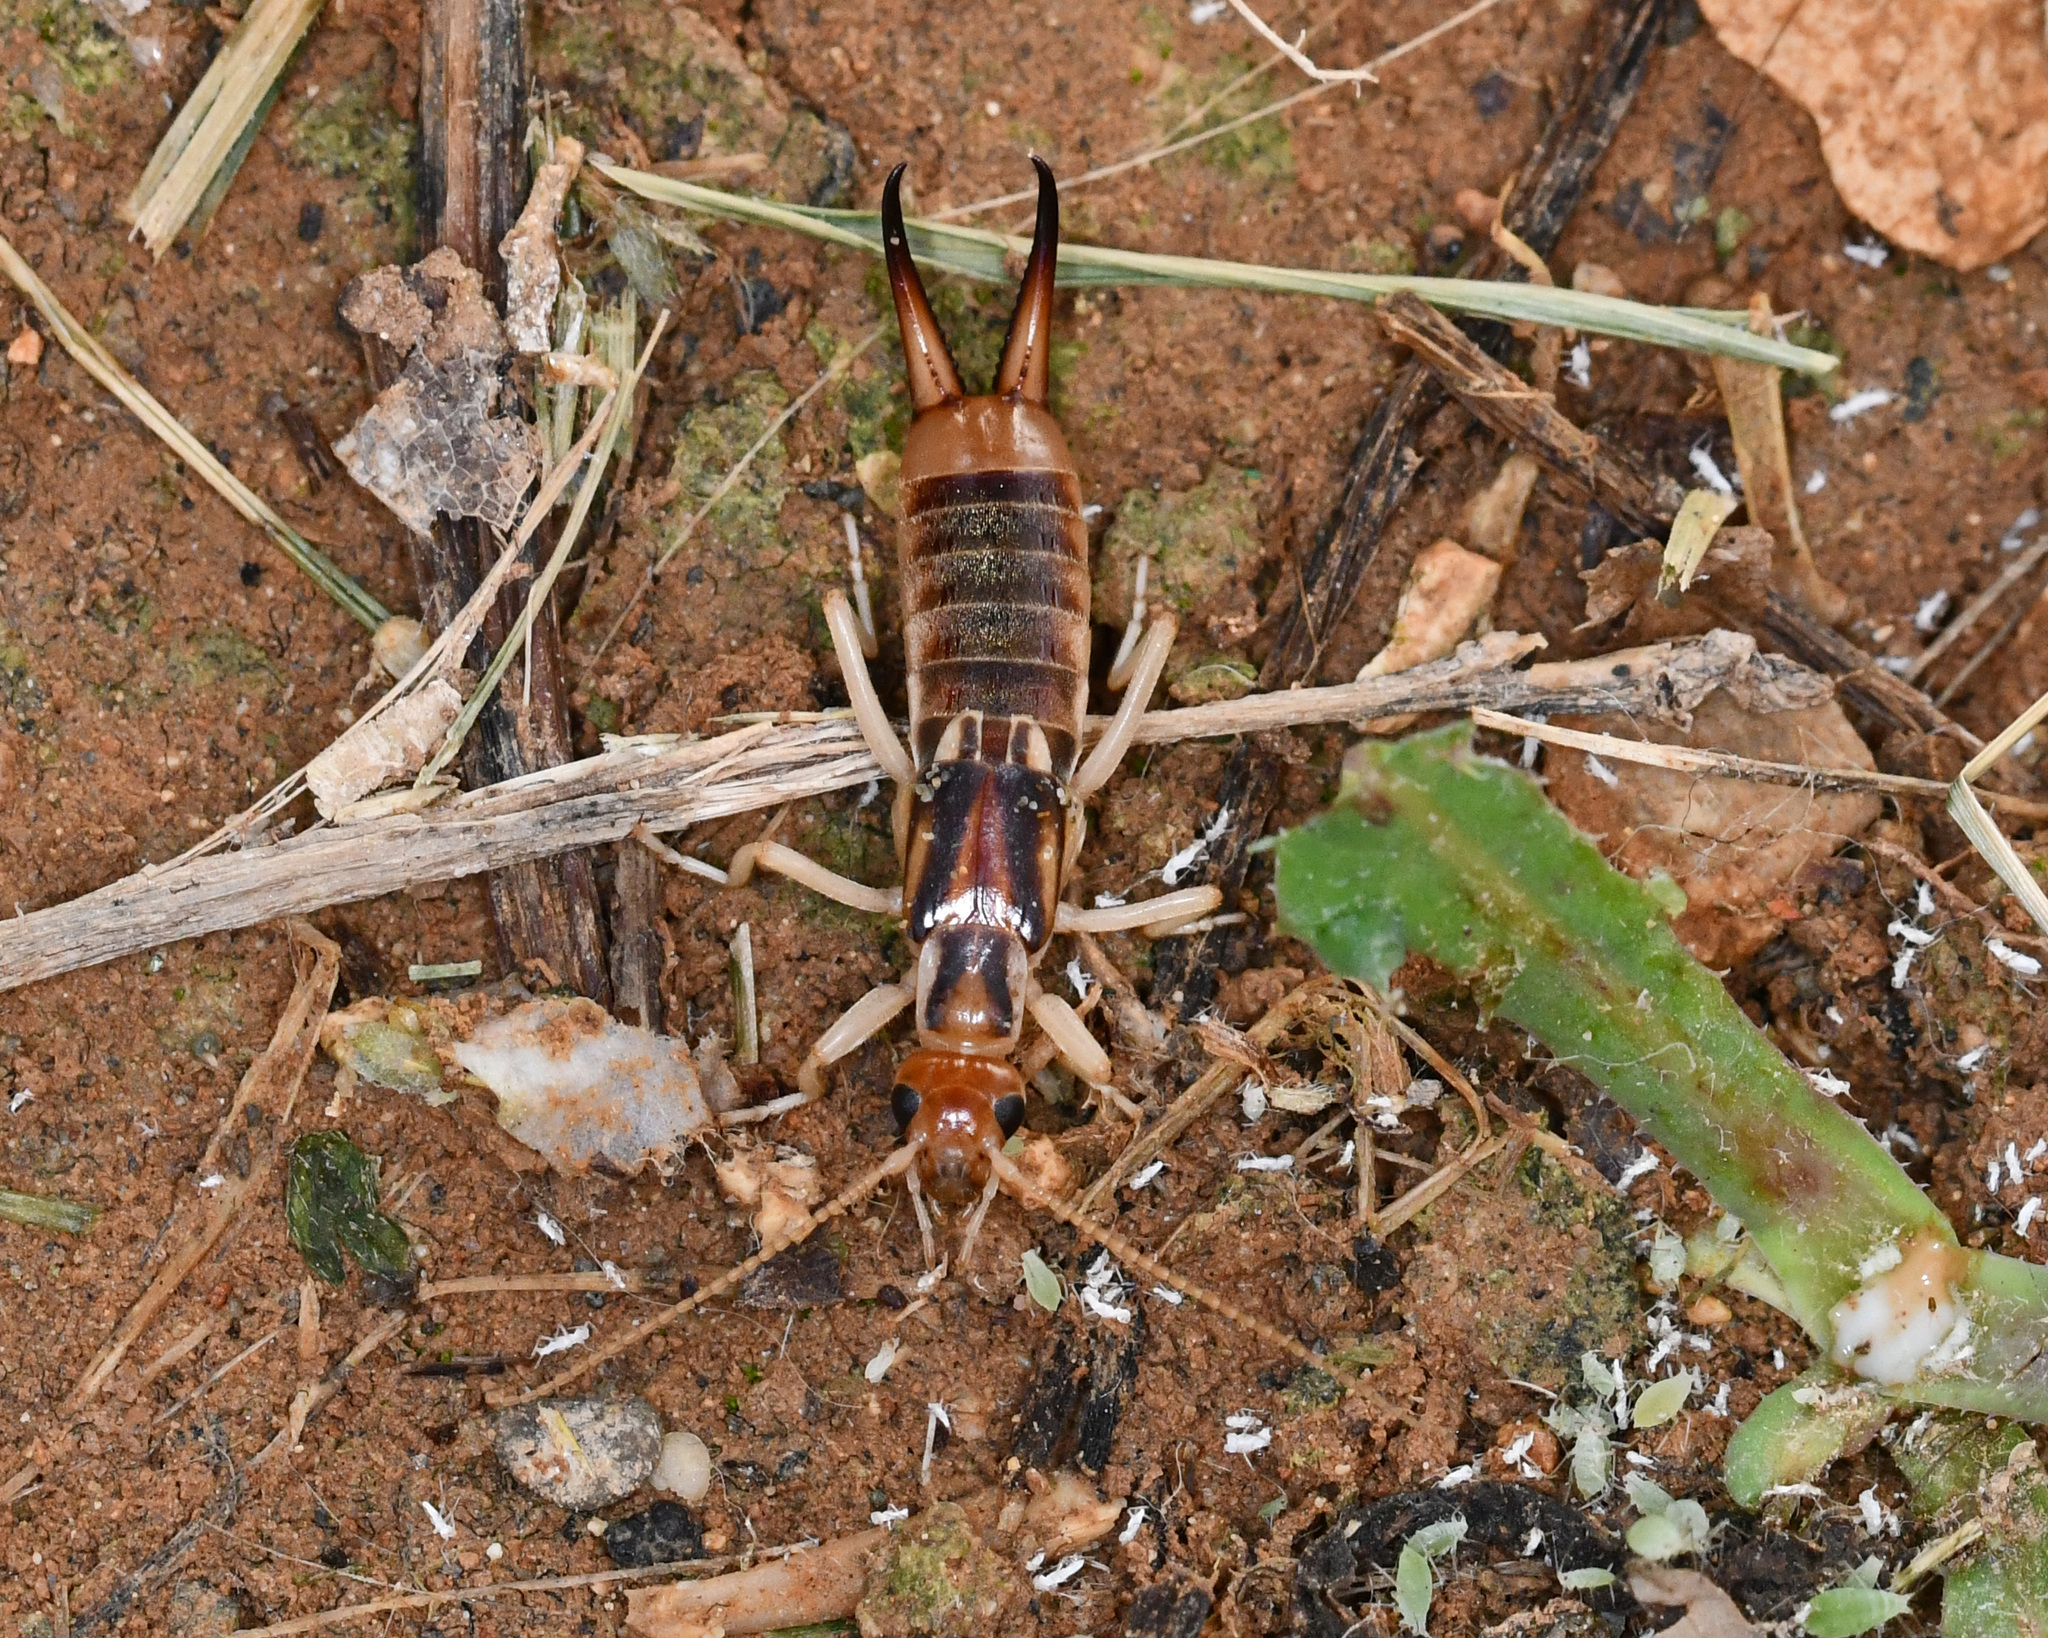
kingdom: Animalia
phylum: Arthropoda
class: Insecta
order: Dermaptera
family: Labiduridae
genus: Labidura
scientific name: Labidura riparia
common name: Striped earwig
